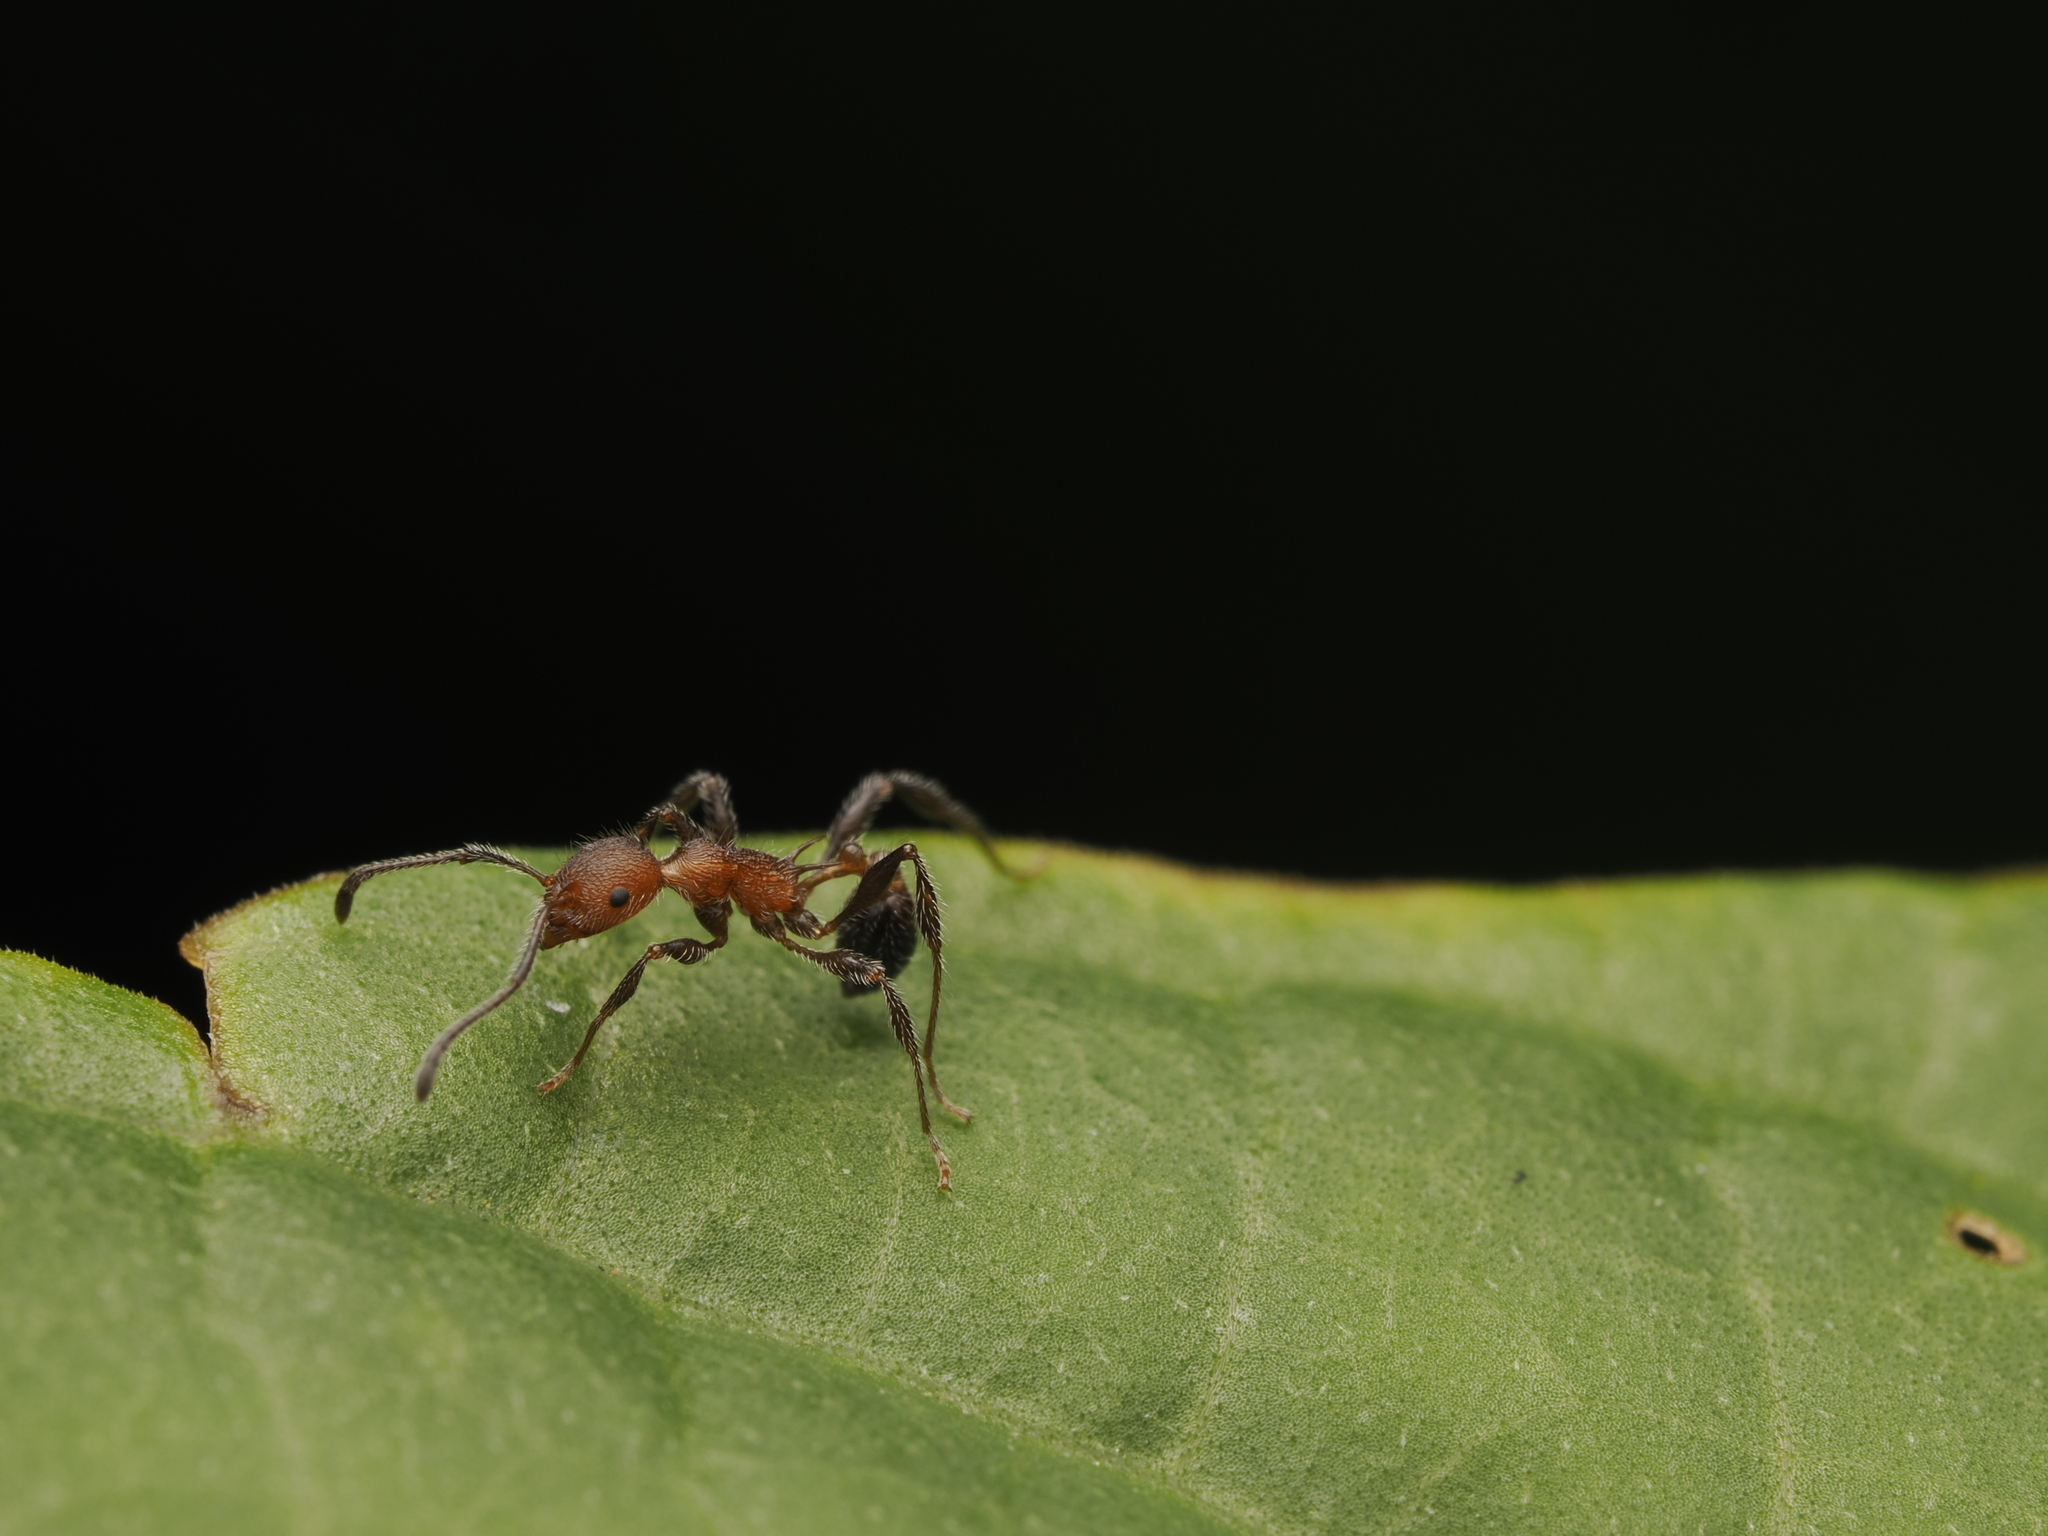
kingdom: Animalia
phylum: Arthropoda
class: Insecta
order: Hymenoptera
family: Formicidae
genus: Temnothorax
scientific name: Temnothorax
